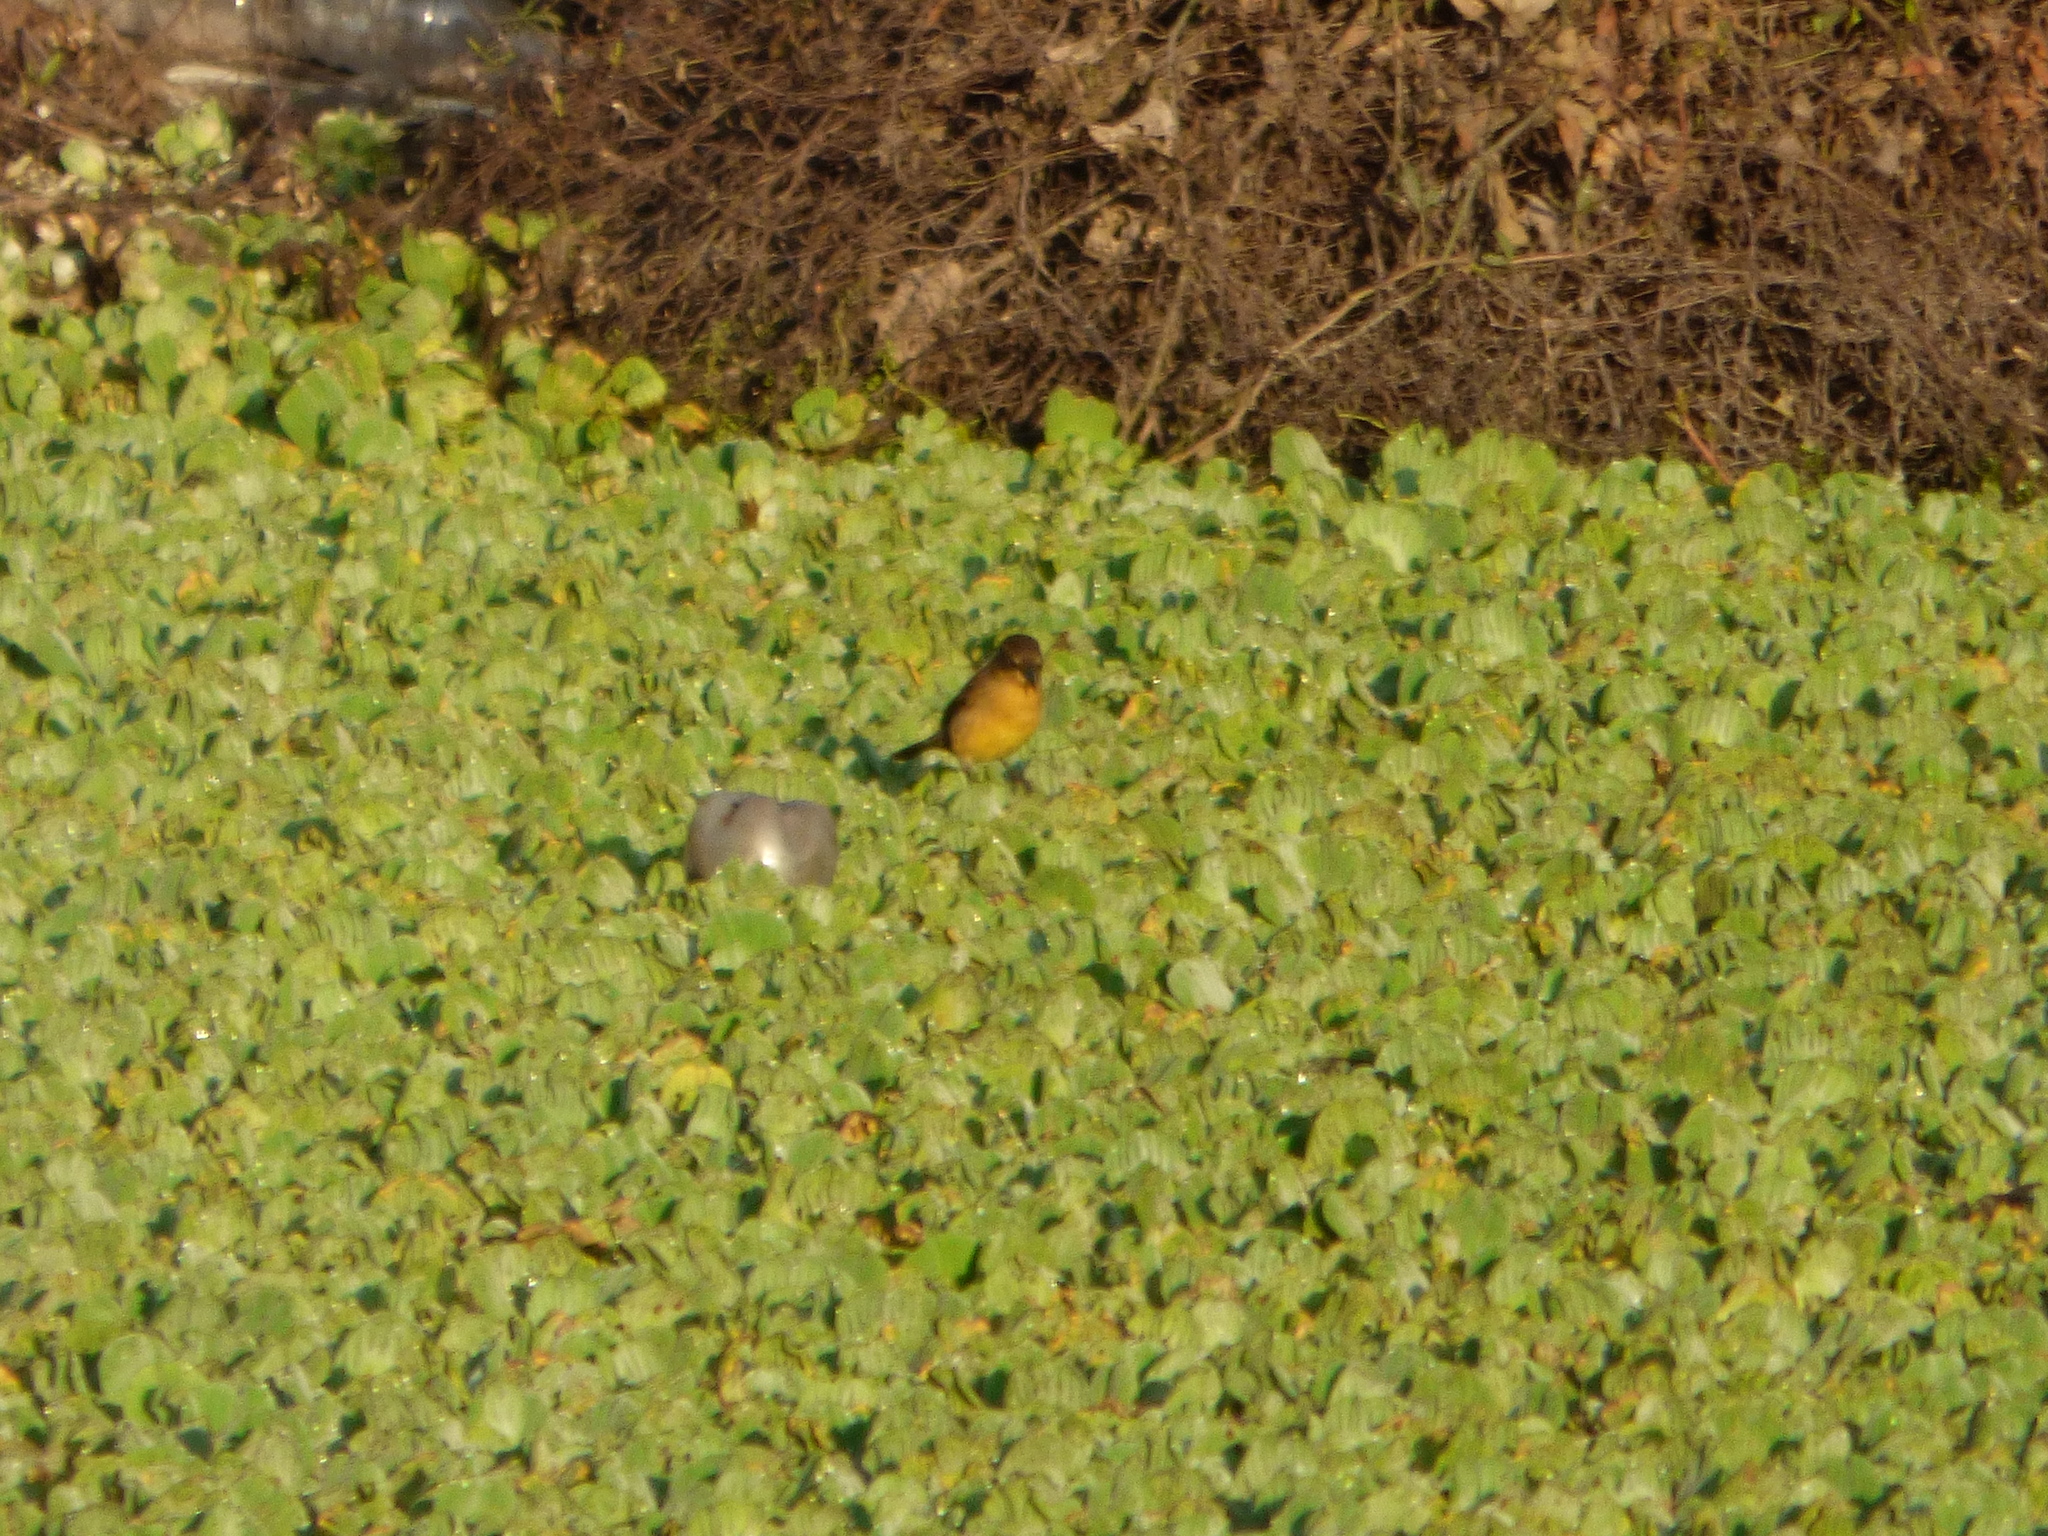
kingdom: Animalia
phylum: Chordata
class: Aves
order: Passeriformes
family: Icteridae
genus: Agelasticus
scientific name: Agelasticus cyanopus
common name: Unicolored blackbird
